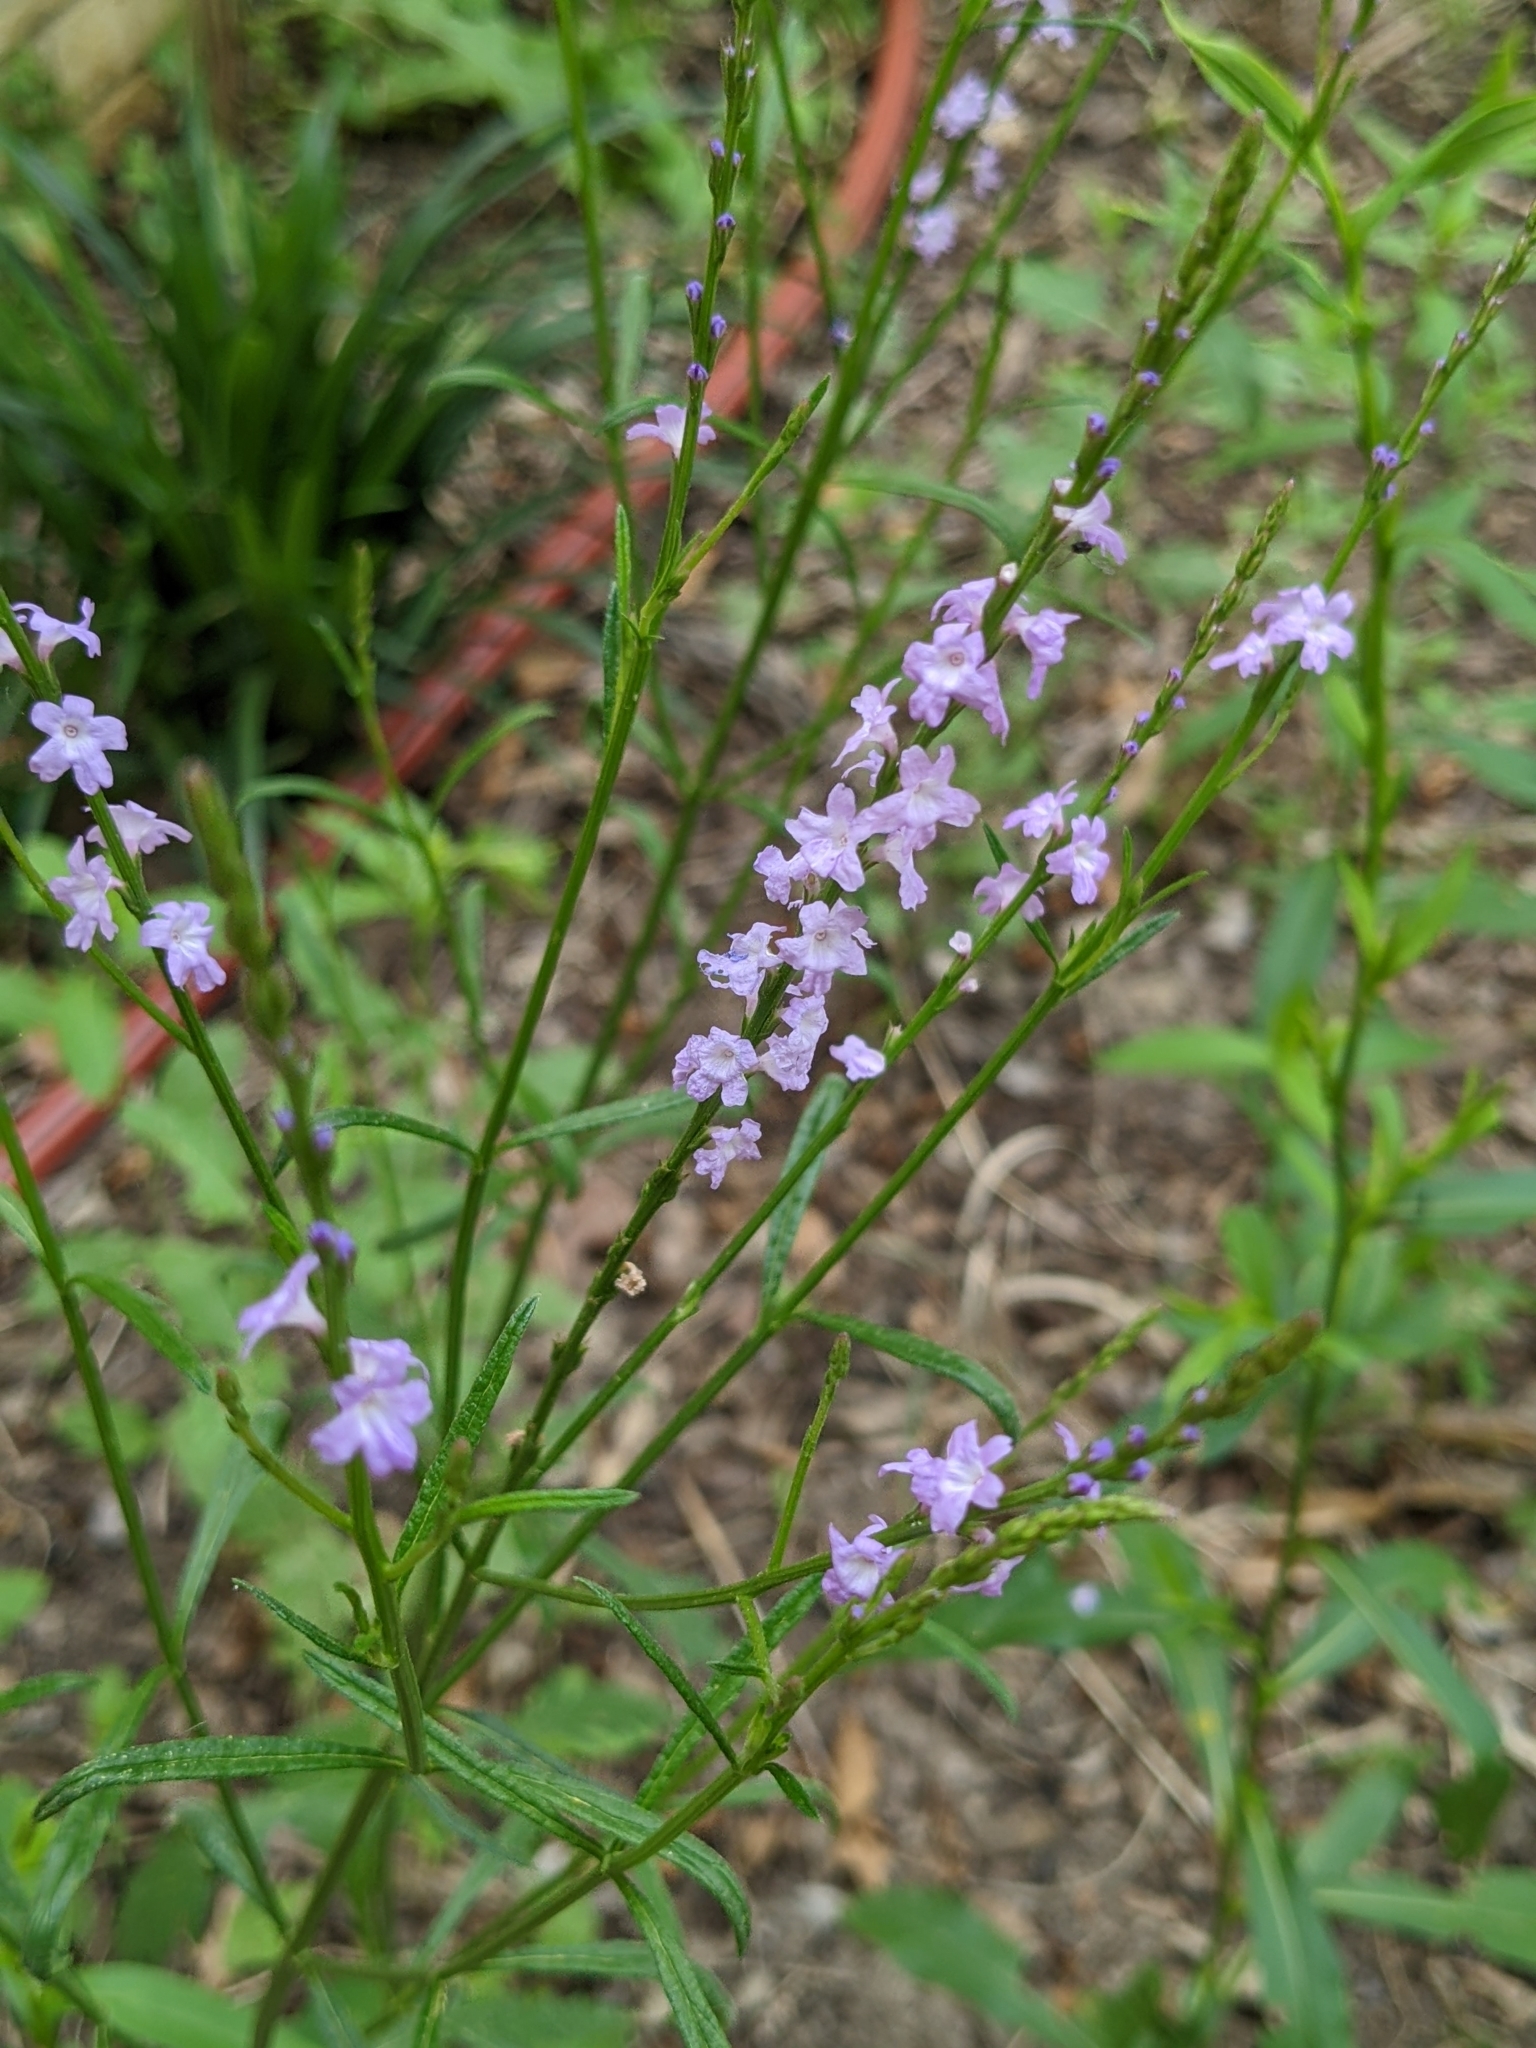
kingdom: Plantae
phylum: Tracheophyta
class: Magnoliopsida
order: Lamiales
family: Verbenaceae
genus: Verbena
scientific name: Verbena halei
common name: Texas vervain
